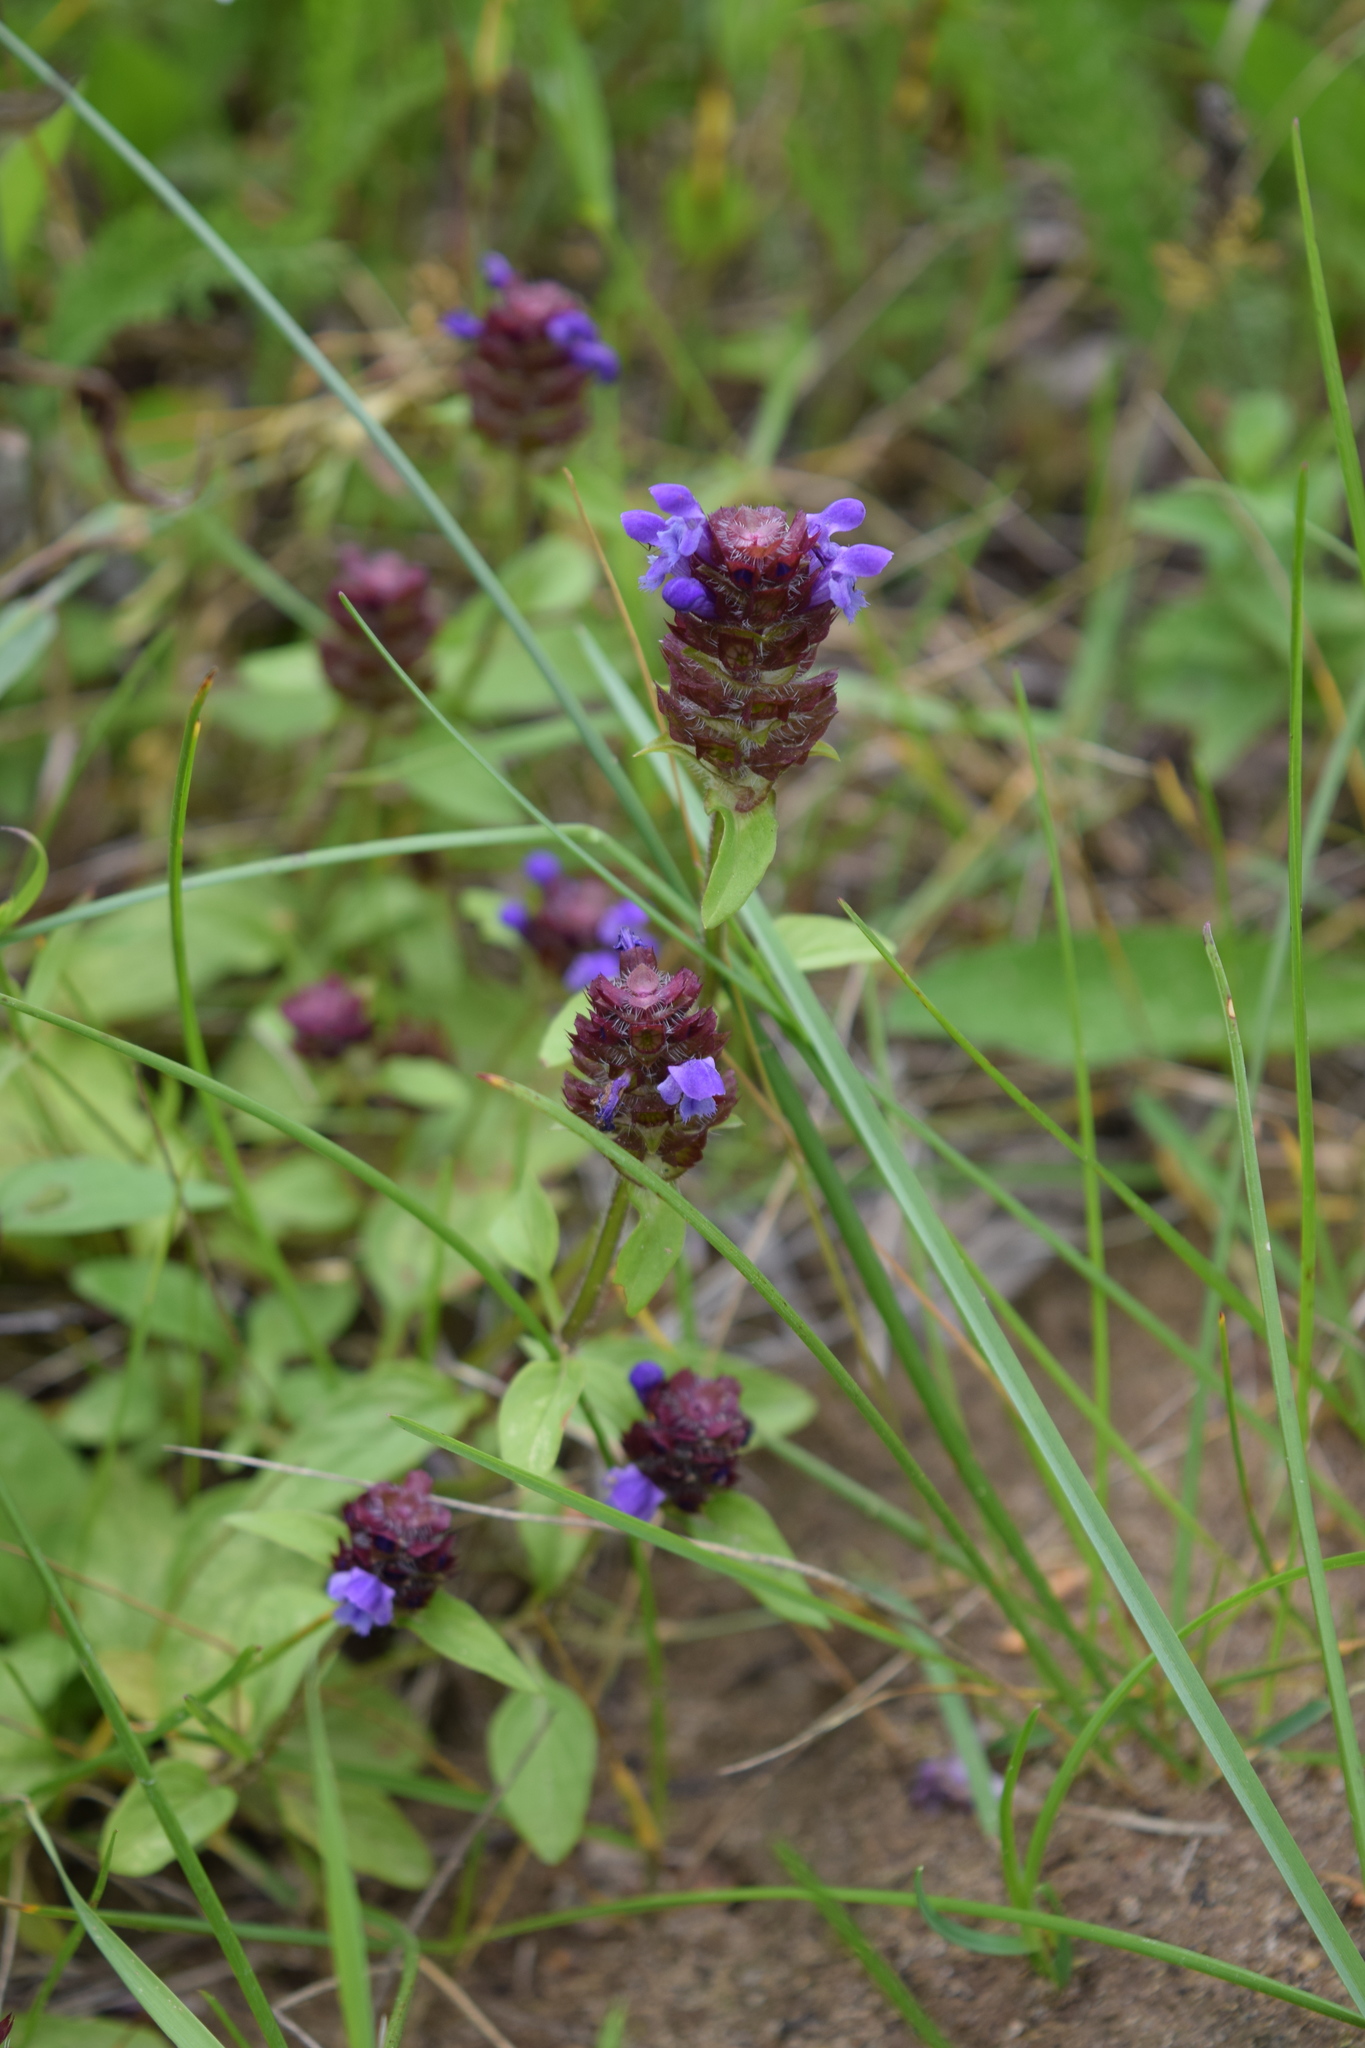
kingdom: Plantae
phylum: Tracheophyta
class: Magnoliopsida
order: Lamiales
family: Lamiaceae
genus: Prunella
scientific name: Prunella vulgaris
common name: Heal-all
